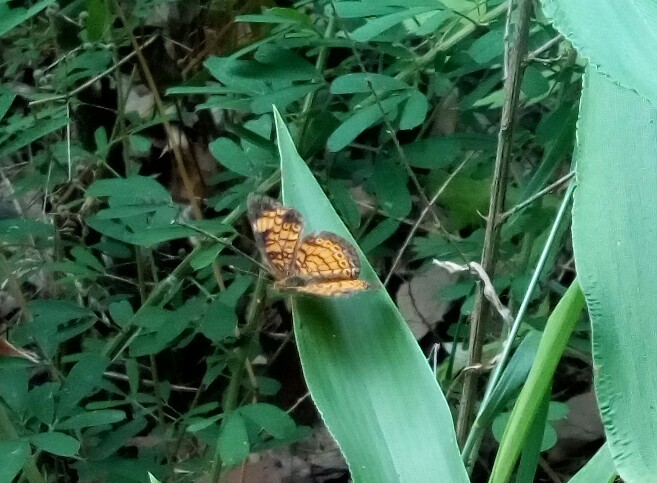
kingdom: Animalia
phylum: Arthropoda
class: Insecta
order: Lepidoptera
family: Nymphalidae
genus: Phyciodes
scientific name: Phyciodes tharos
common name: Pearl crescent
